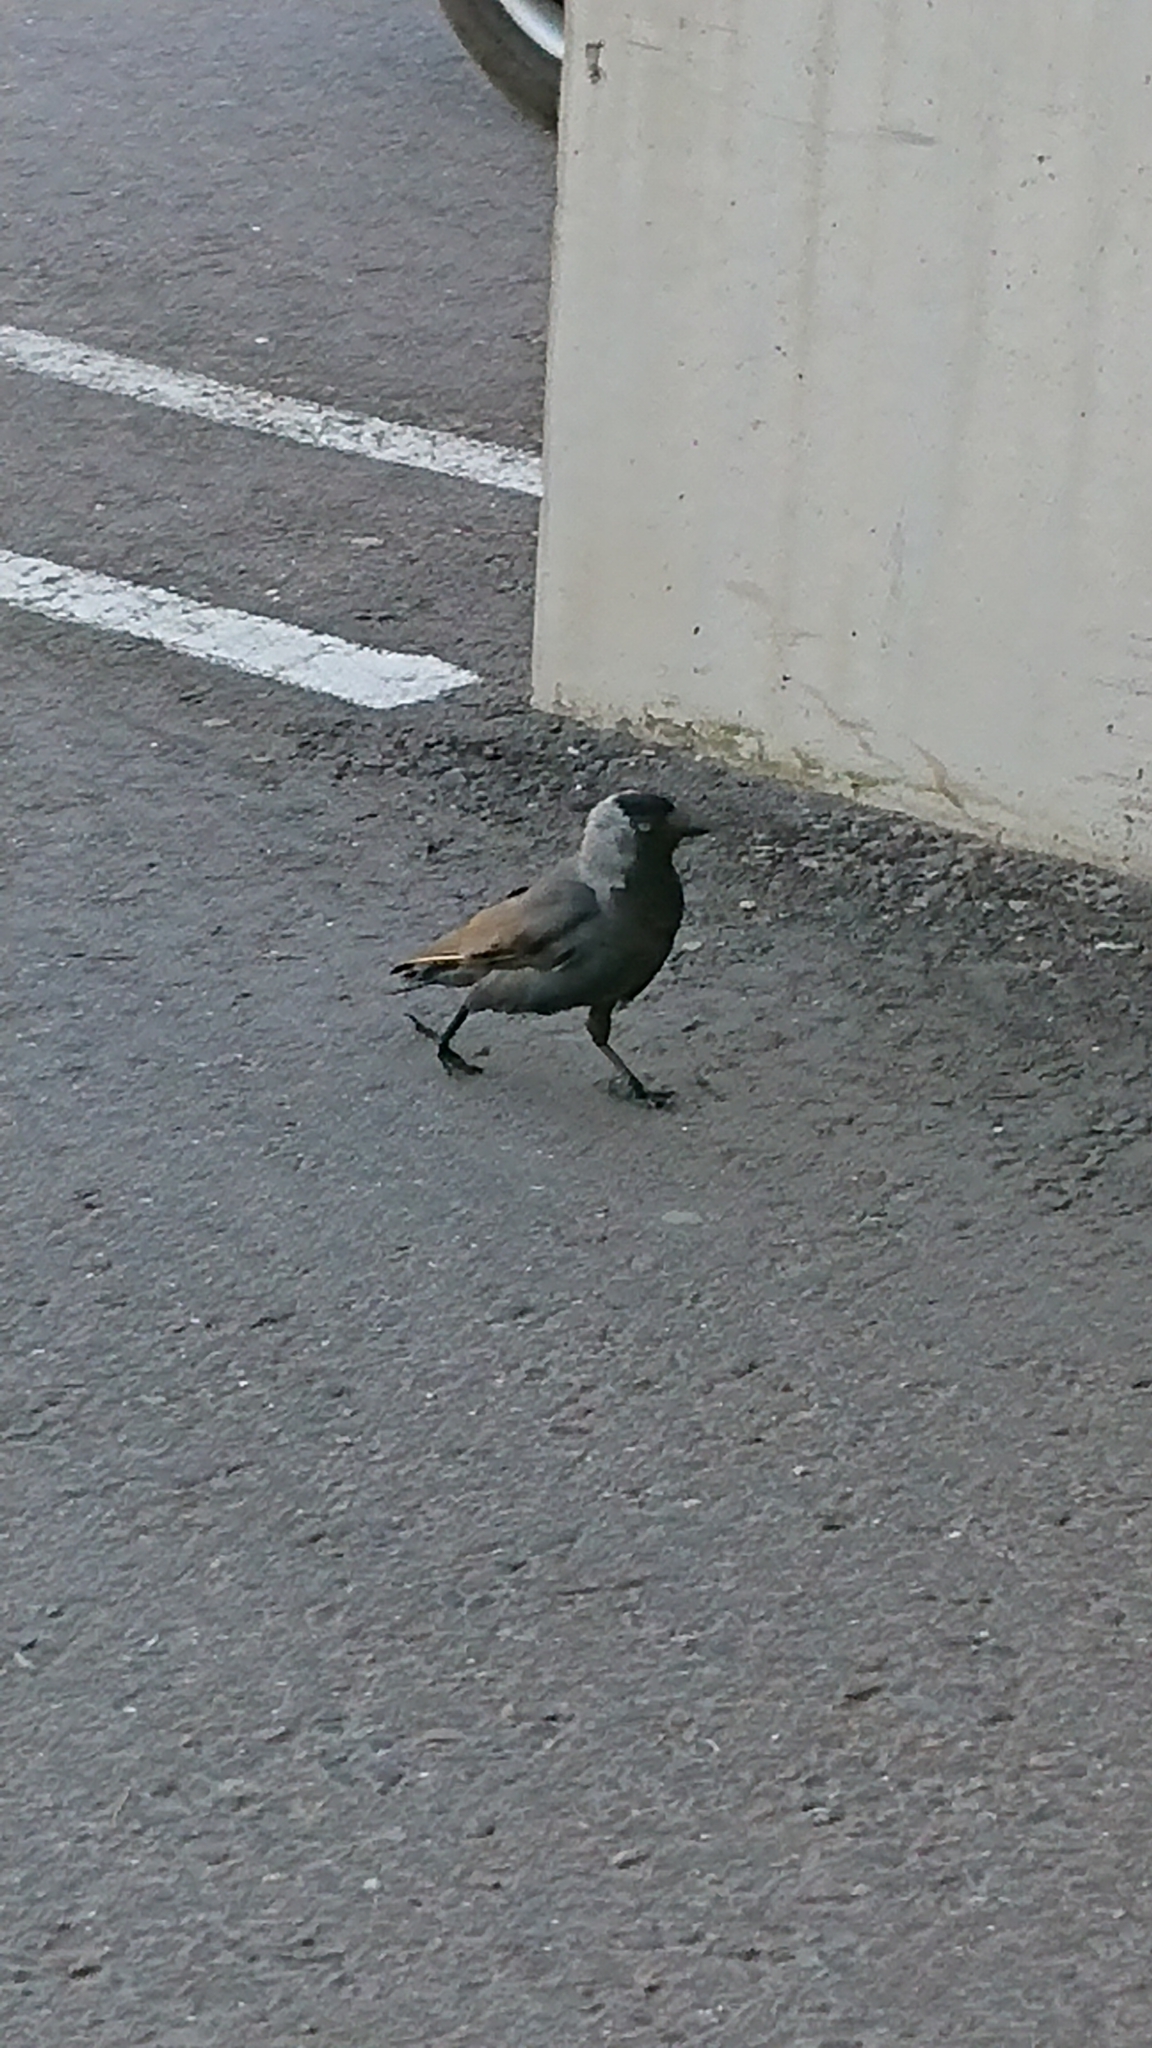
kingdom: Animalia
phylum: Chordata
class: Aves
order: Passeriformes
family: Corvidae
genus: Coloeus
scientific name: Coloeus monedula
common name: Western jackdaw
